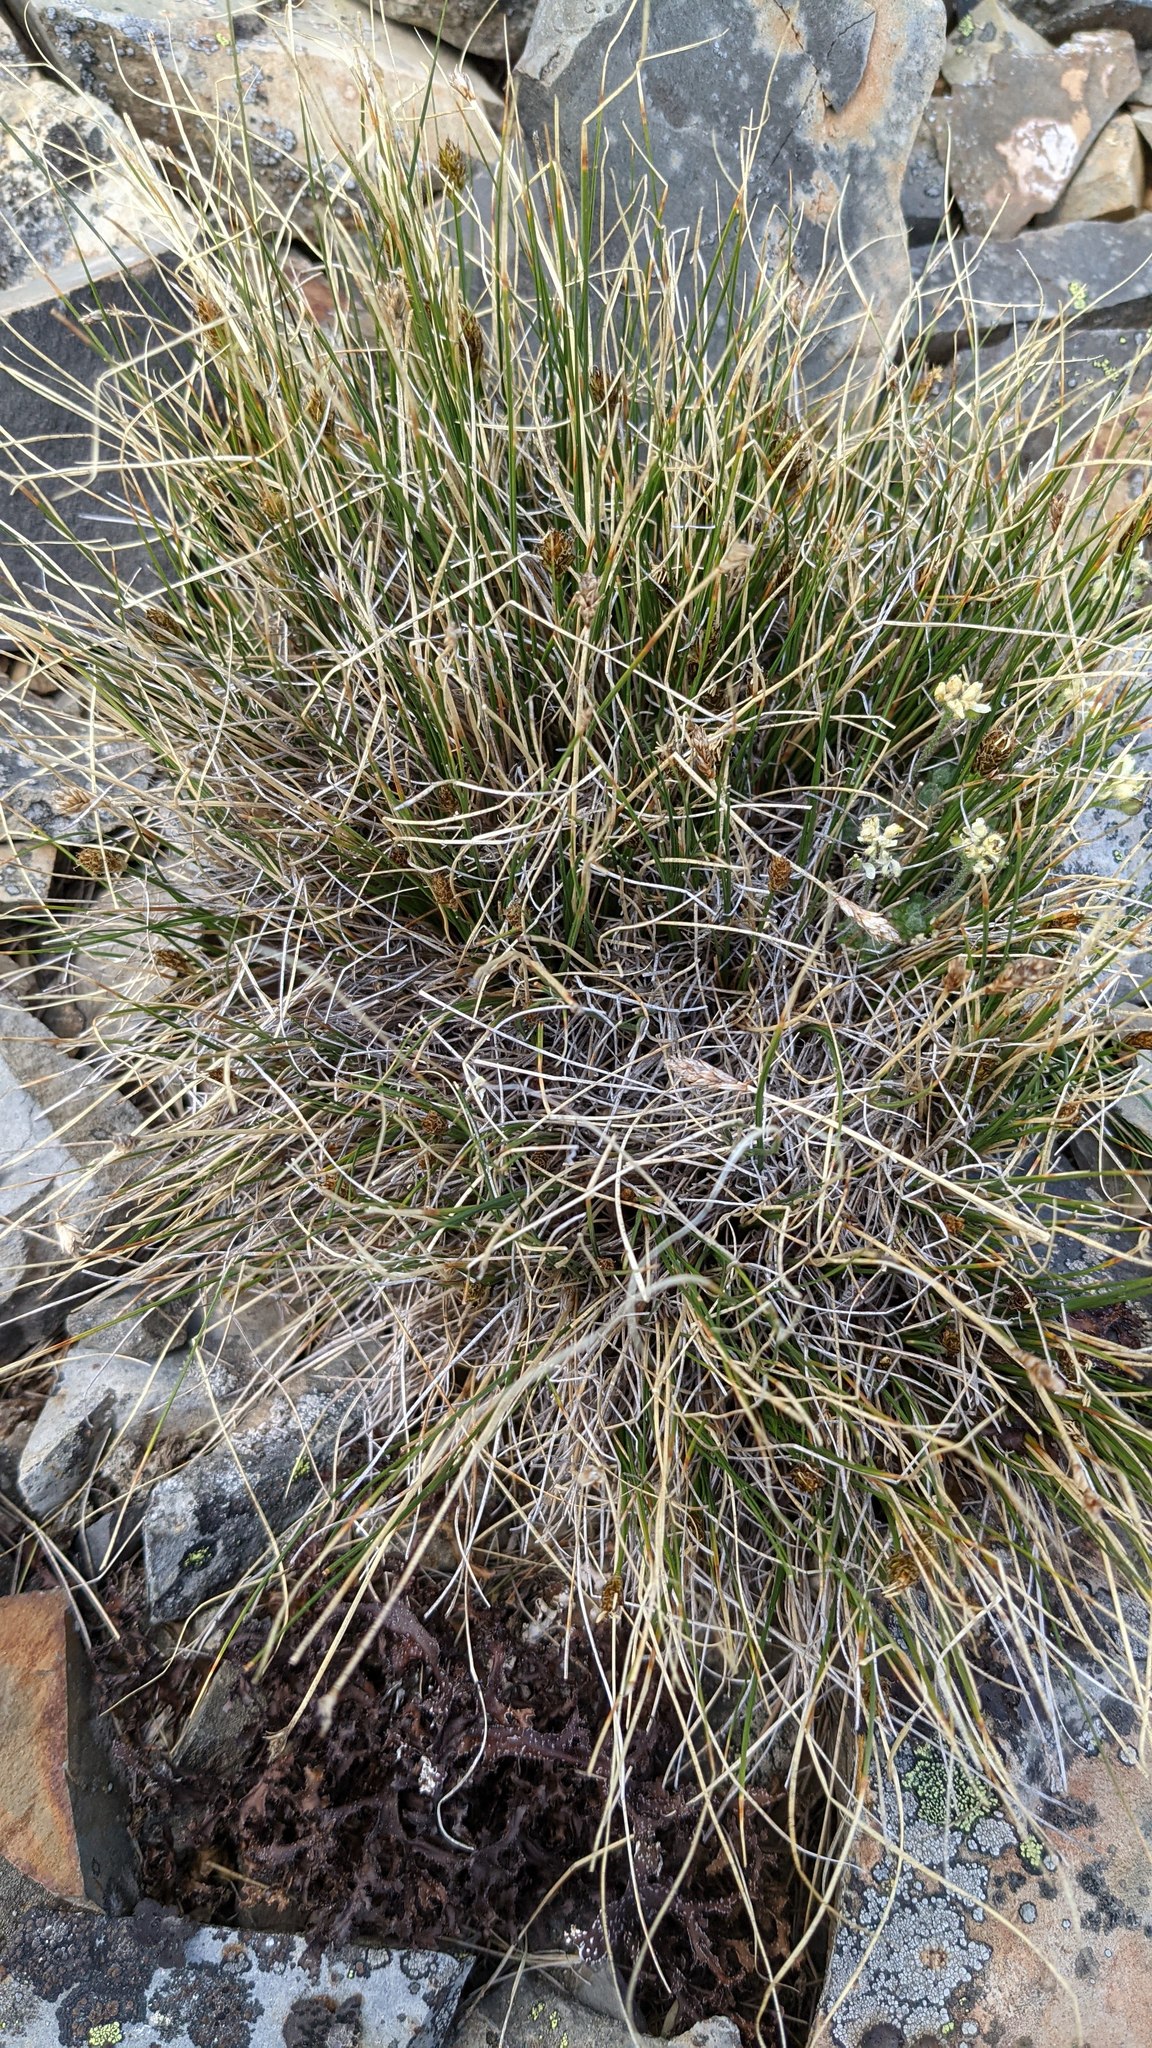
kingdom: Plantae
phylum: Tracheophyta
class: Liliopsida
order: Poales
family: Cyperaceae
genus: Carex
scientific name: Carex nardina
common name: Nard sedge
